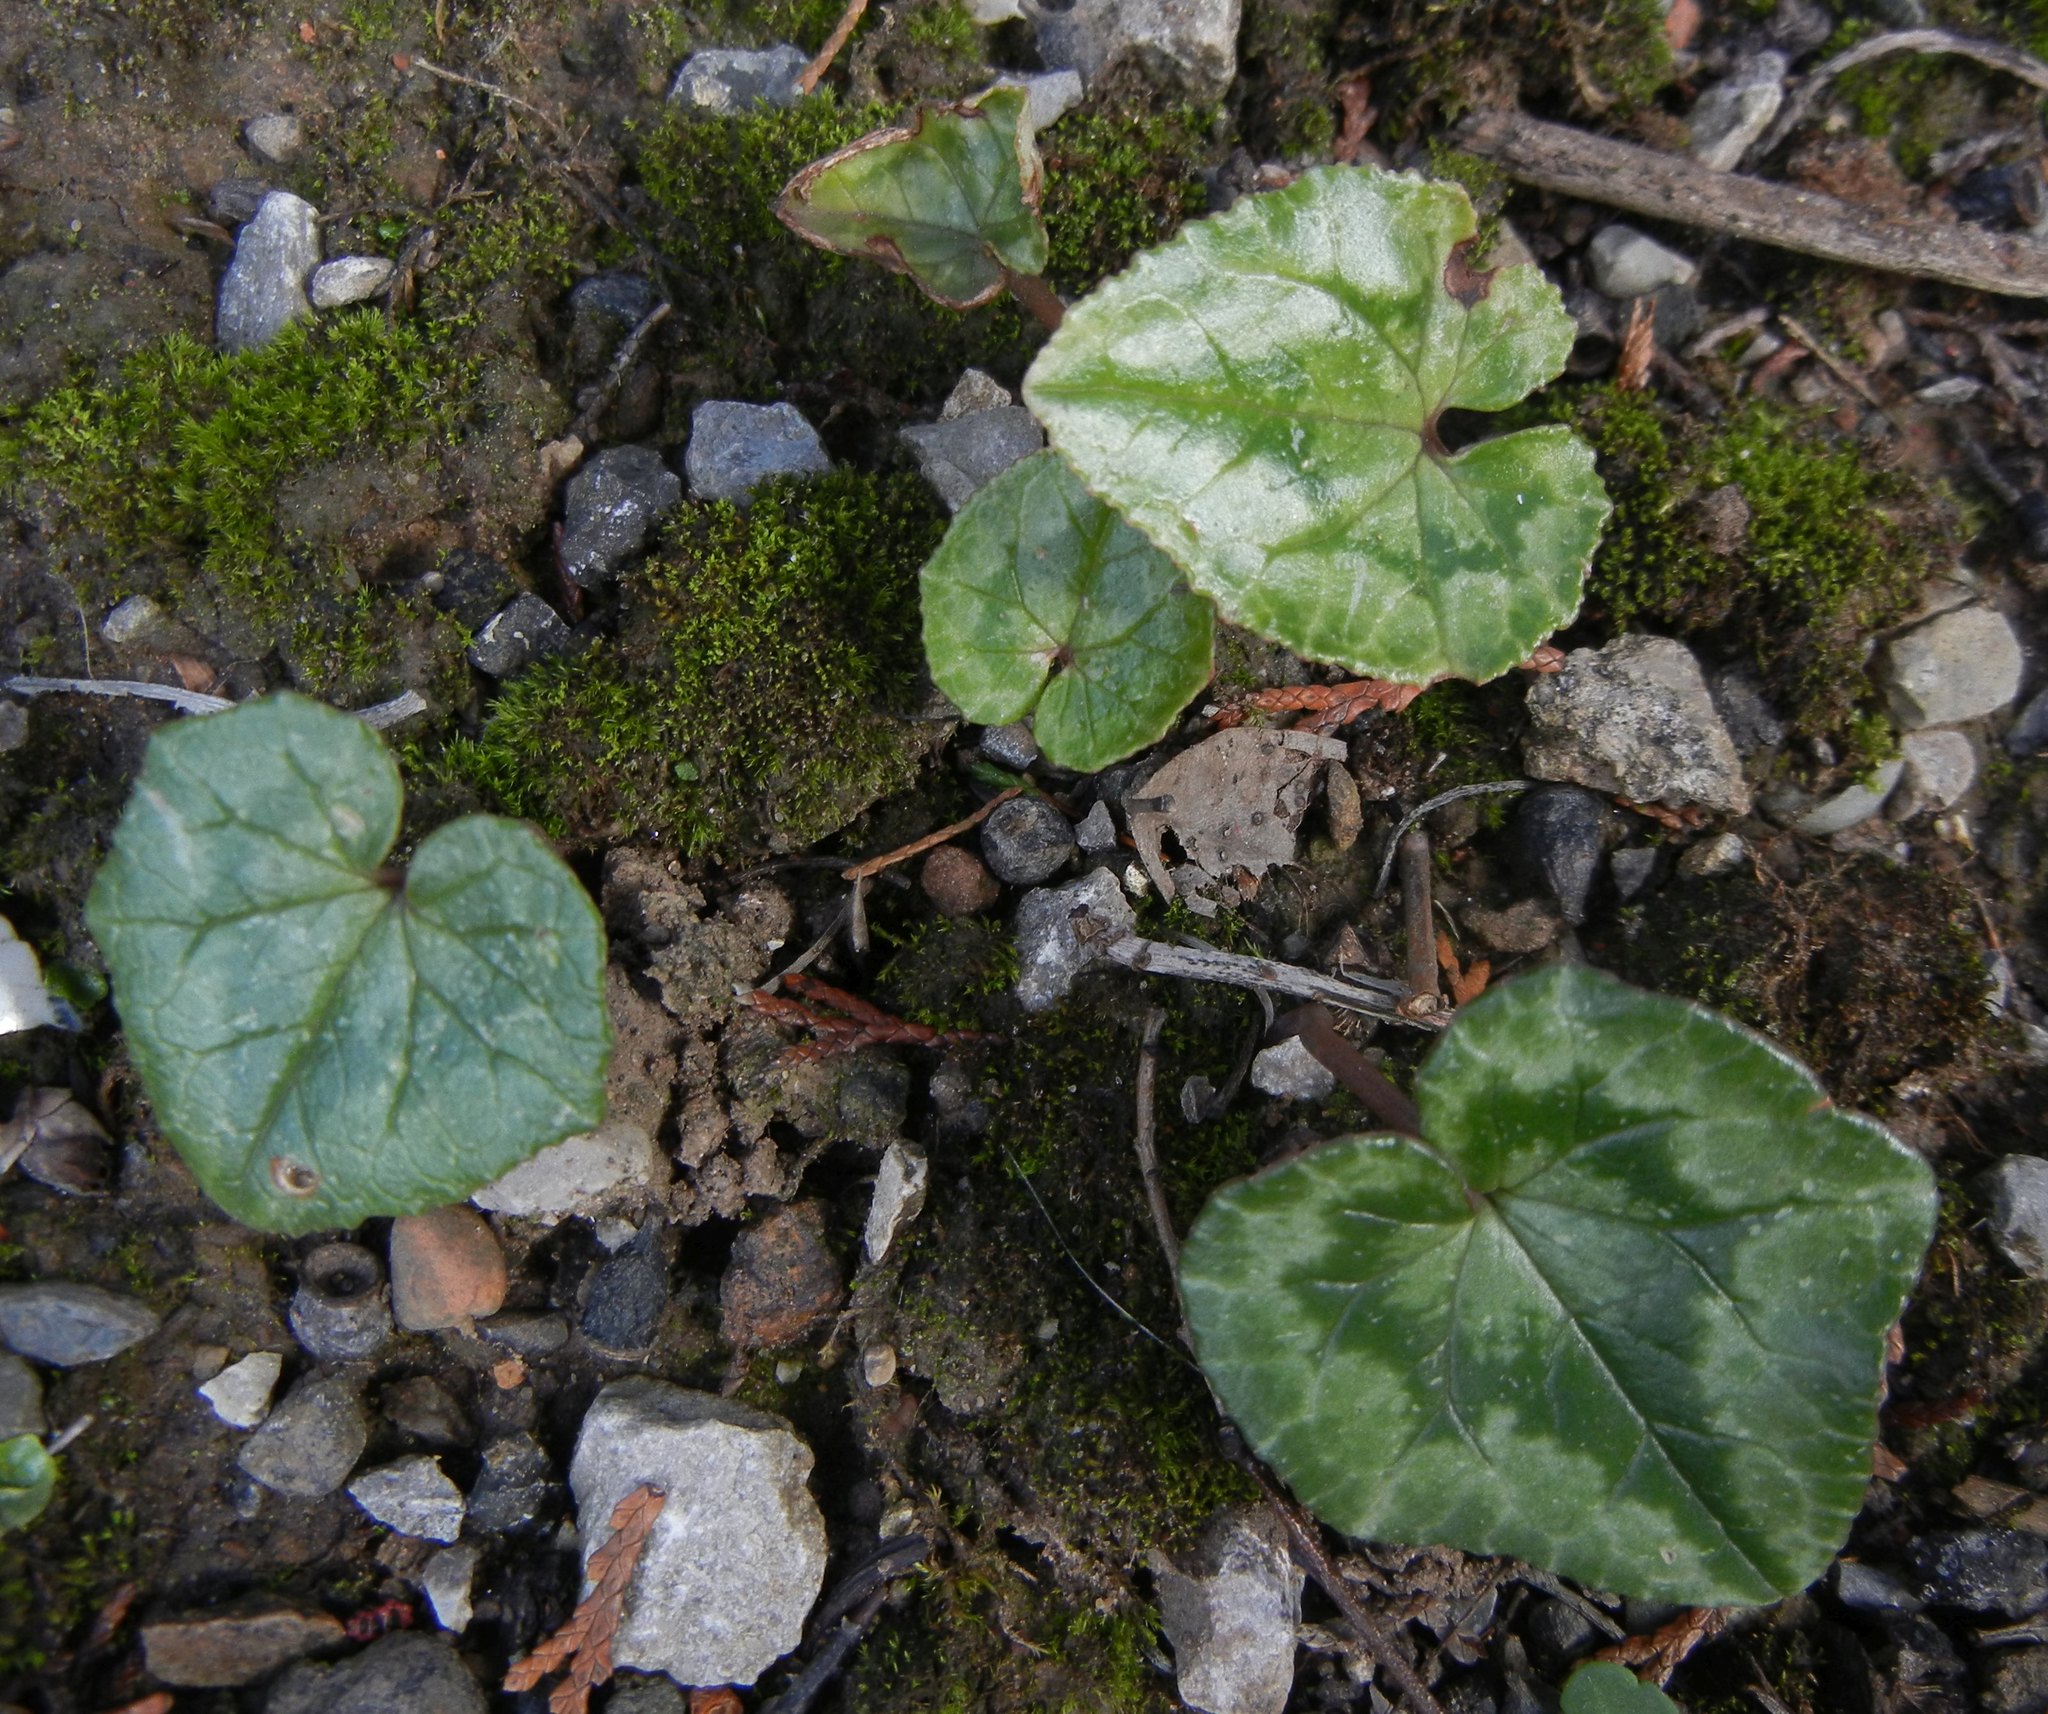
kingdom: Plantae
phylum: Tracheophyta
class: Magnoliopsida
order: Ericales
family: Primulaceae
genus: Cyclamen
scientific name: Cyclamen hederifolium
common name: Sowbread
